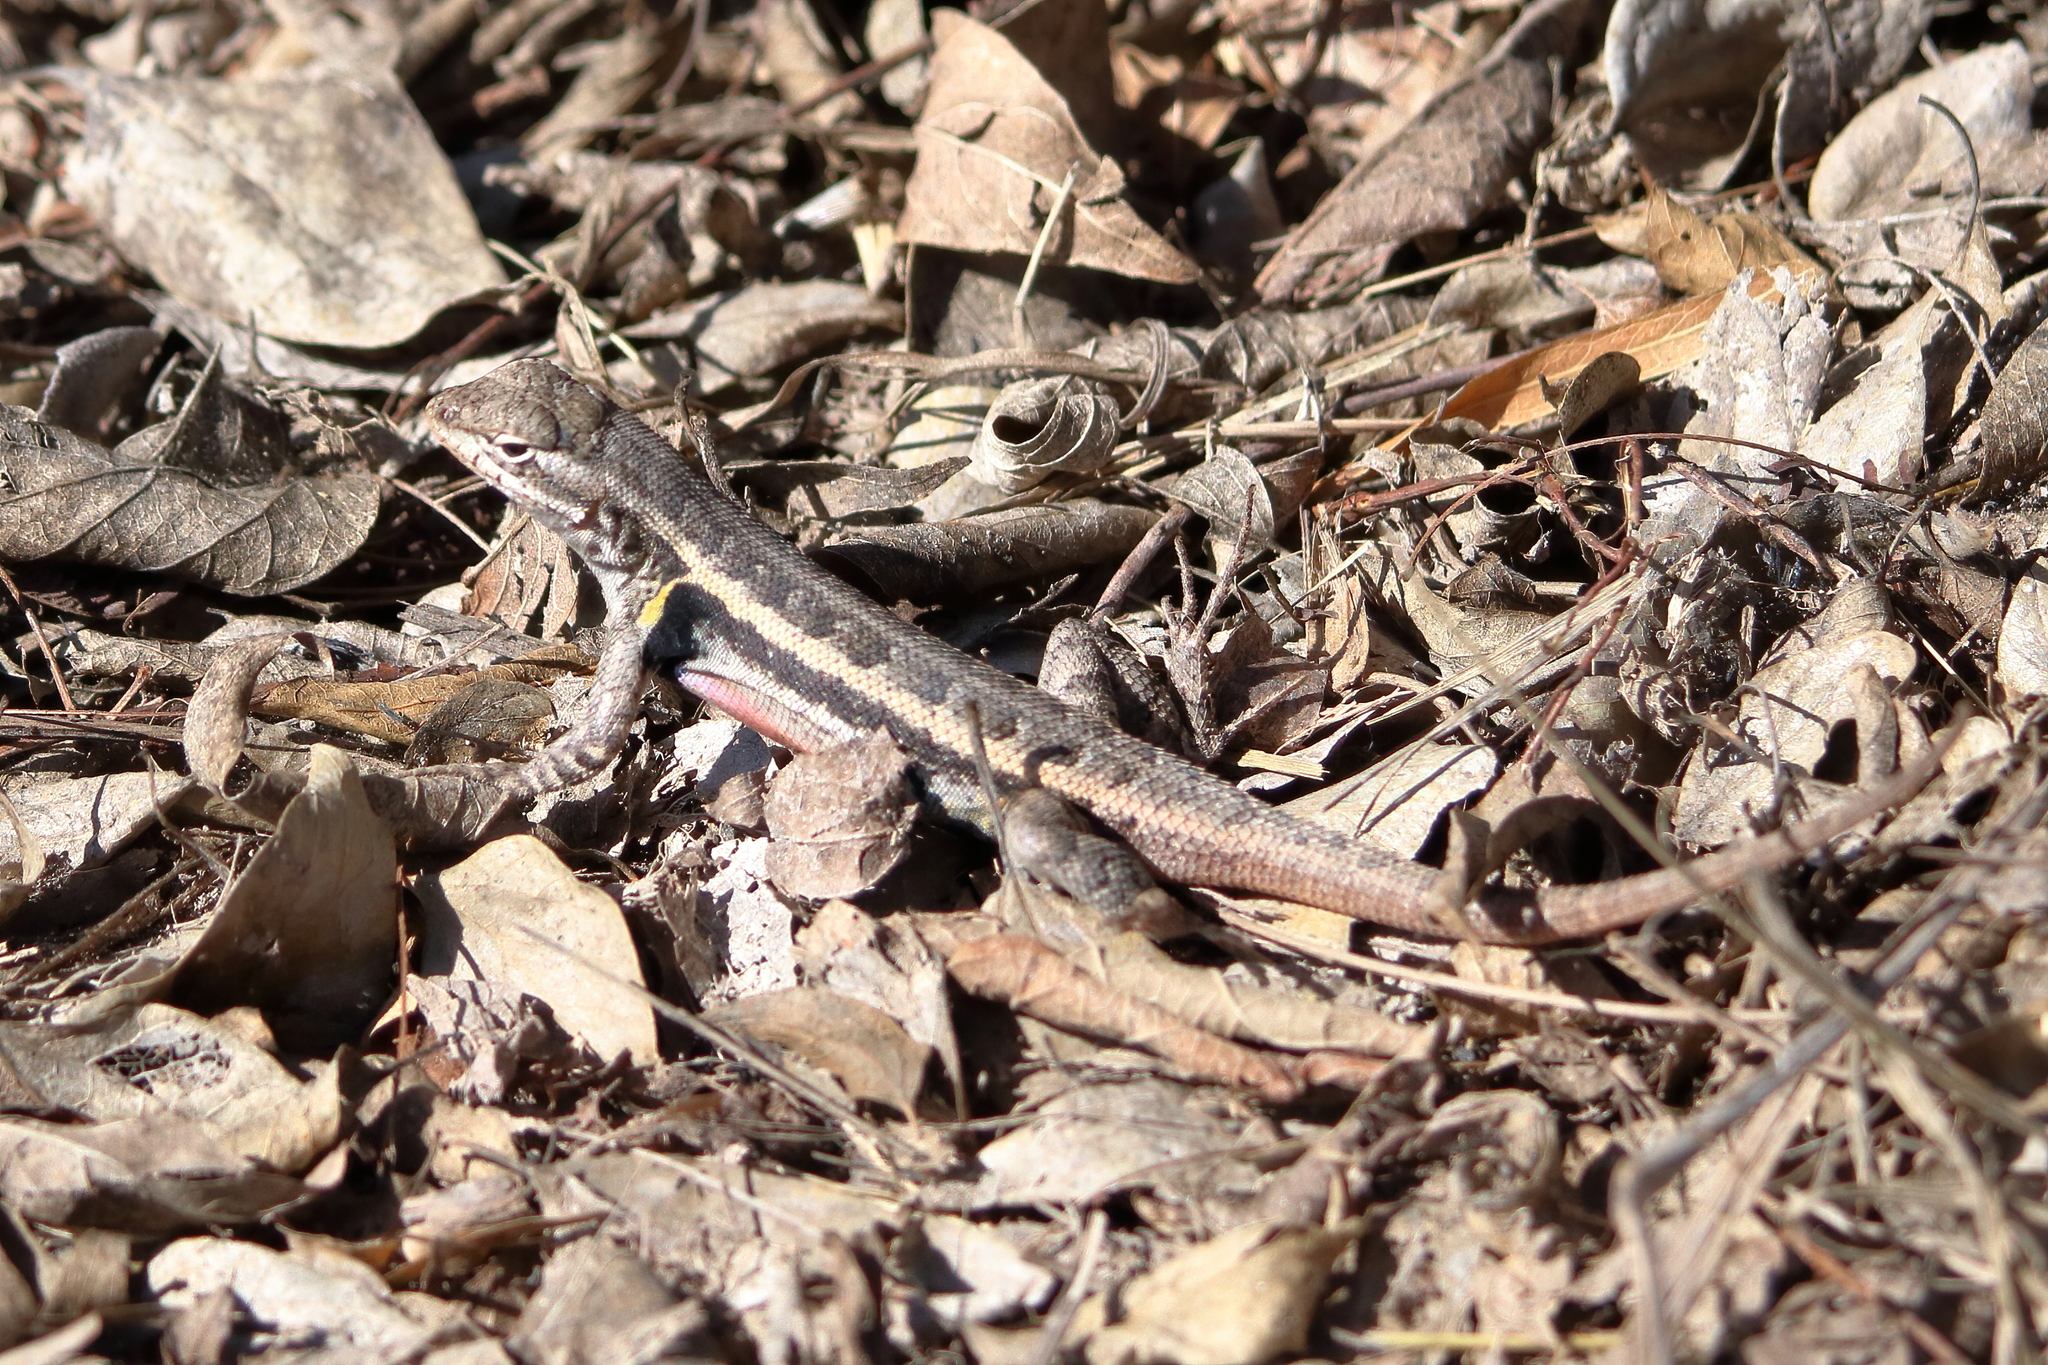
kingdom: Animalia
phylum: Chordata
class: Squamata
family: Phrynosomatidae
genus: Sceloporus
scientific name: Sceloporus variabilis
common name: Rosebelly lizard
